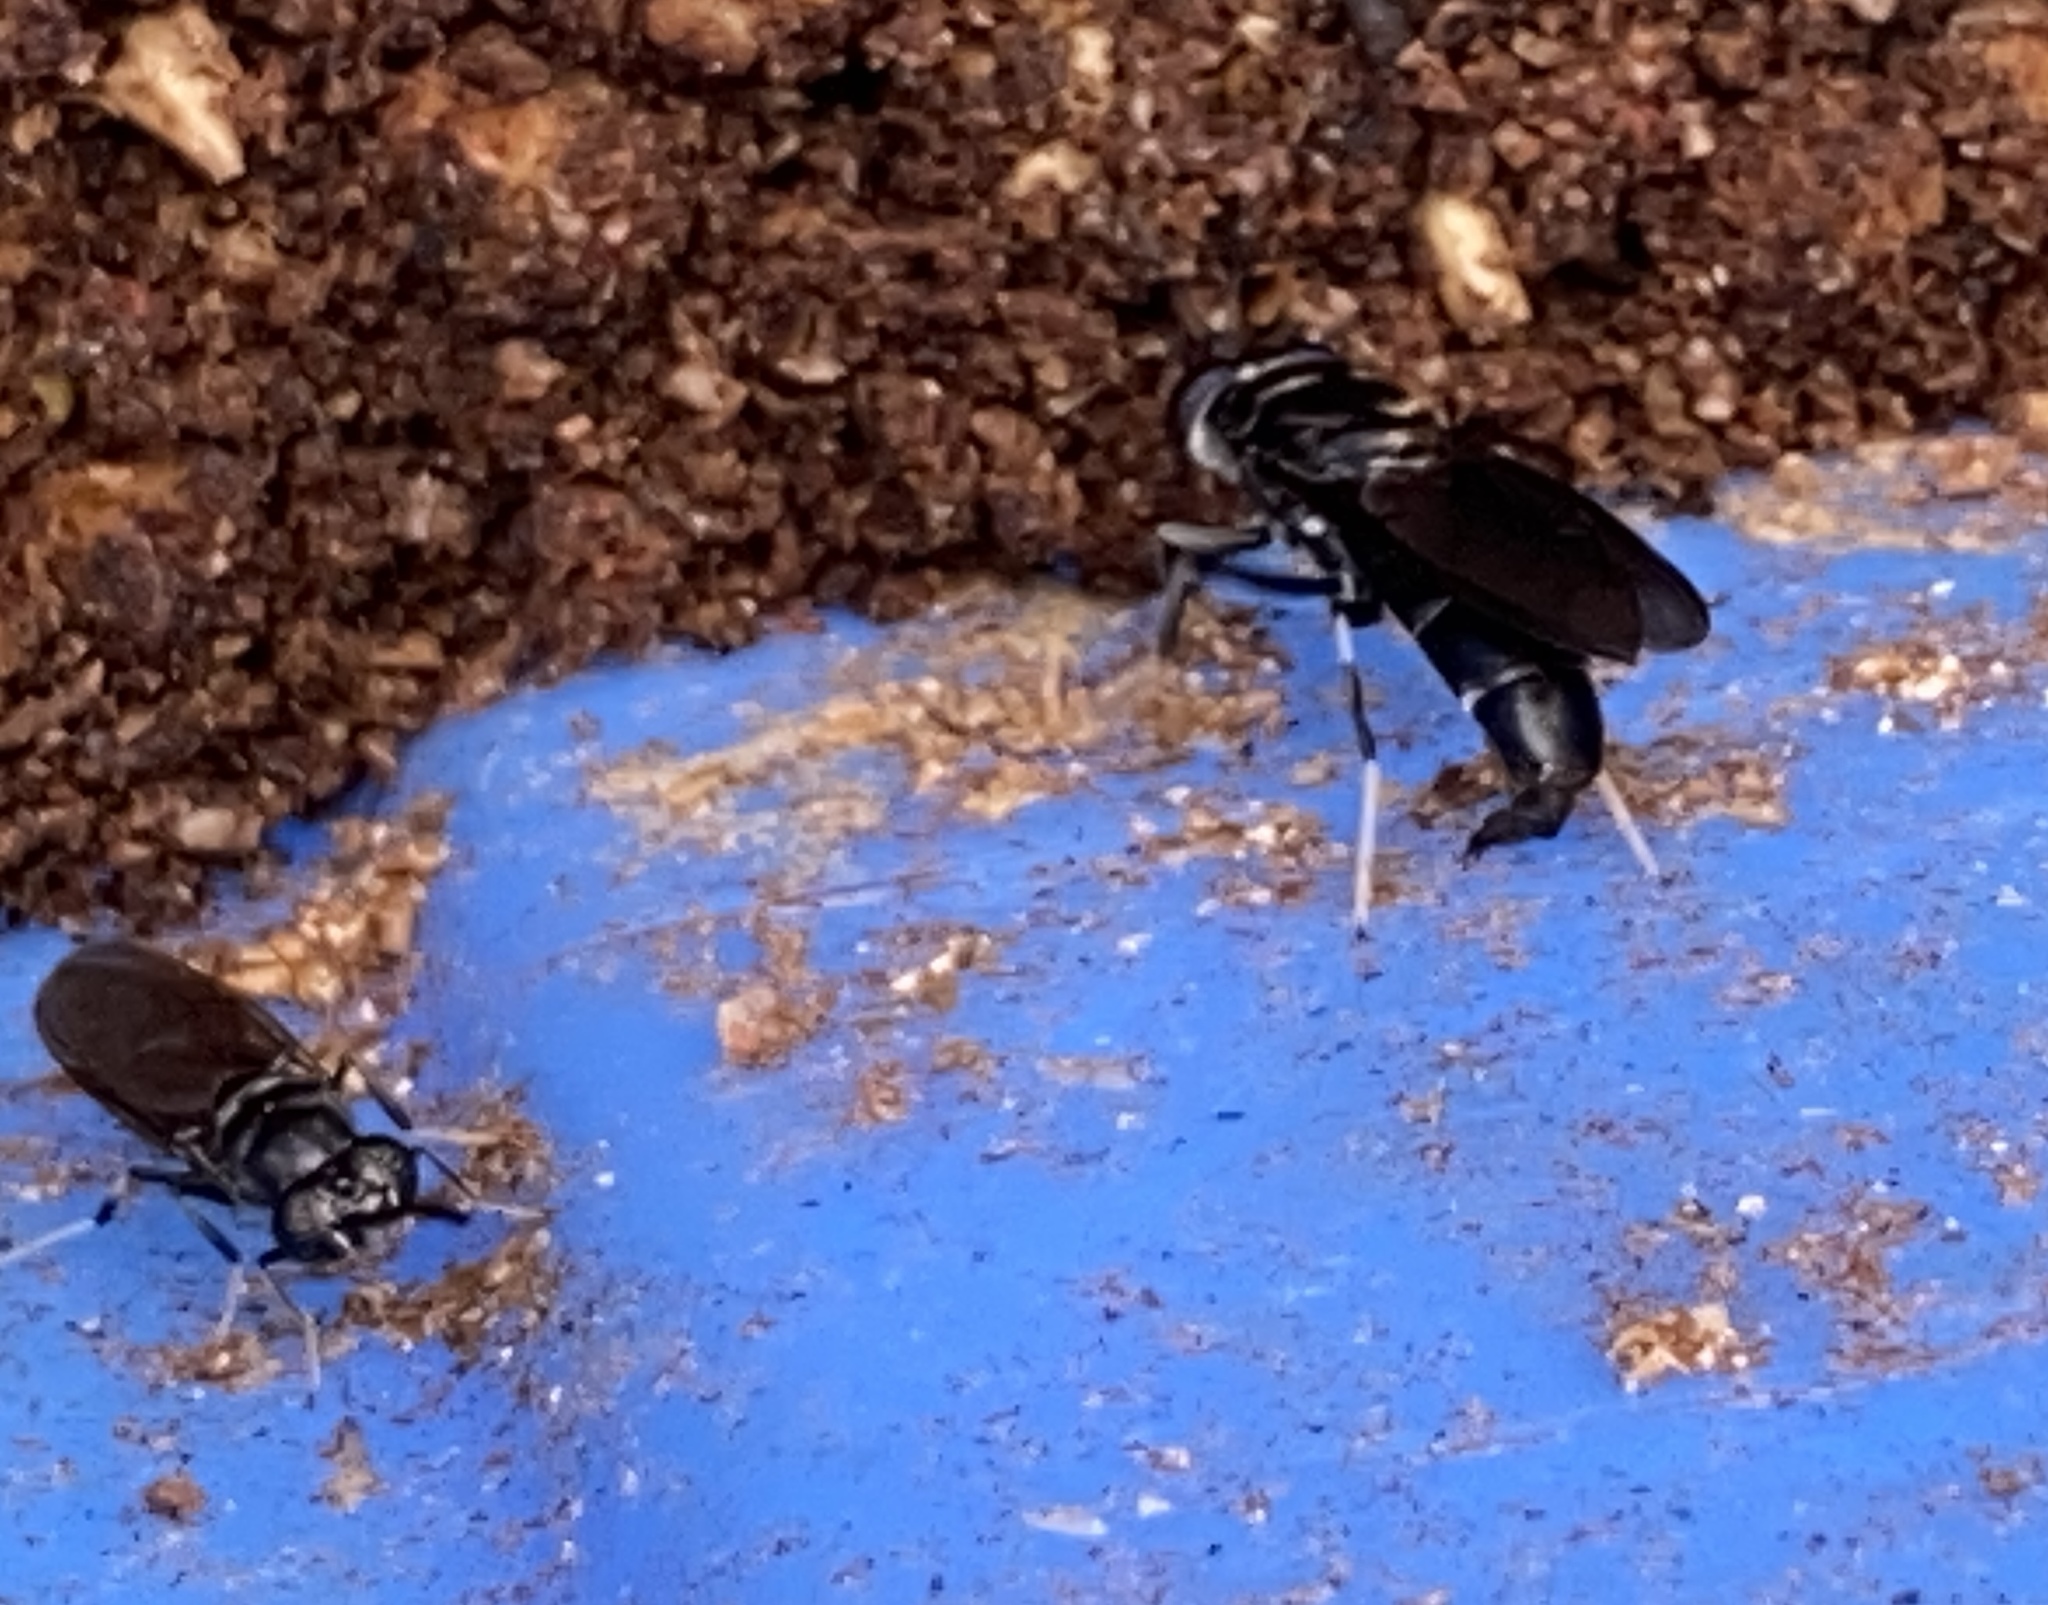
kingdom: Animalia
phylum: Arthropoda
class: Insecta
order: Diptera
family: Stratiomyidae
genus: Hermetia
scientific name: Hermetia illucens
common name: Black soldier fly
